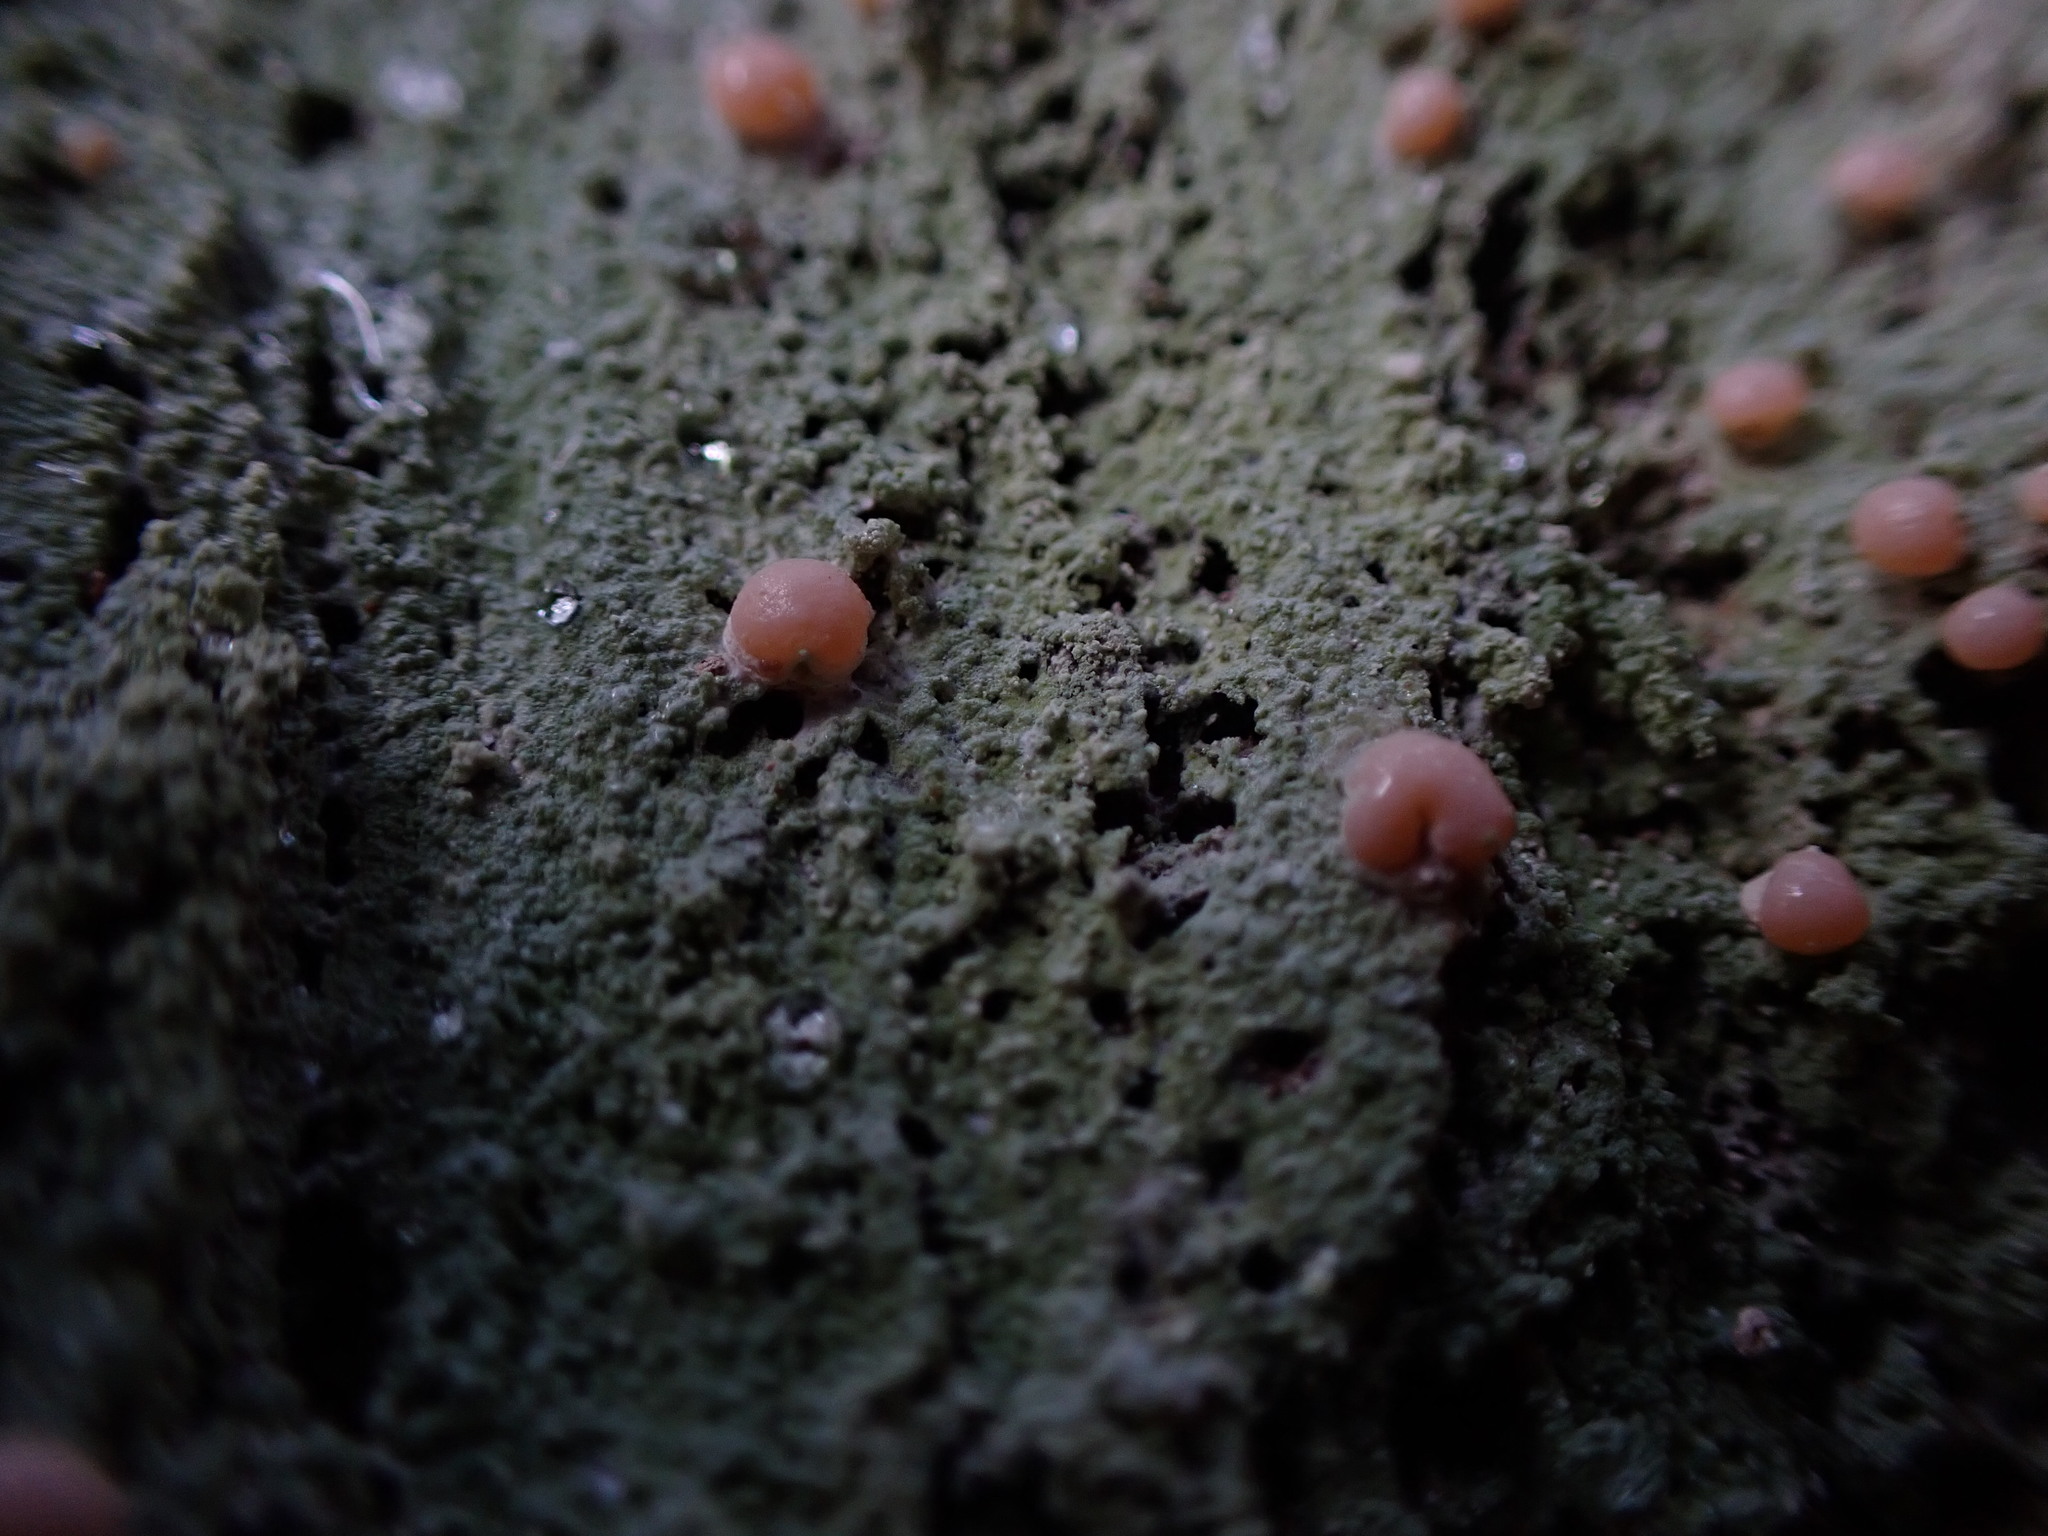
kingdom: Fungi
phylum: Ascomycota
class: Lecanoromycetes
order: Pertusariales
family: Icmadophilaceae
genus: Icmadophila
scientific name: Icmadophila ericetorum
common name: Candy lichen
